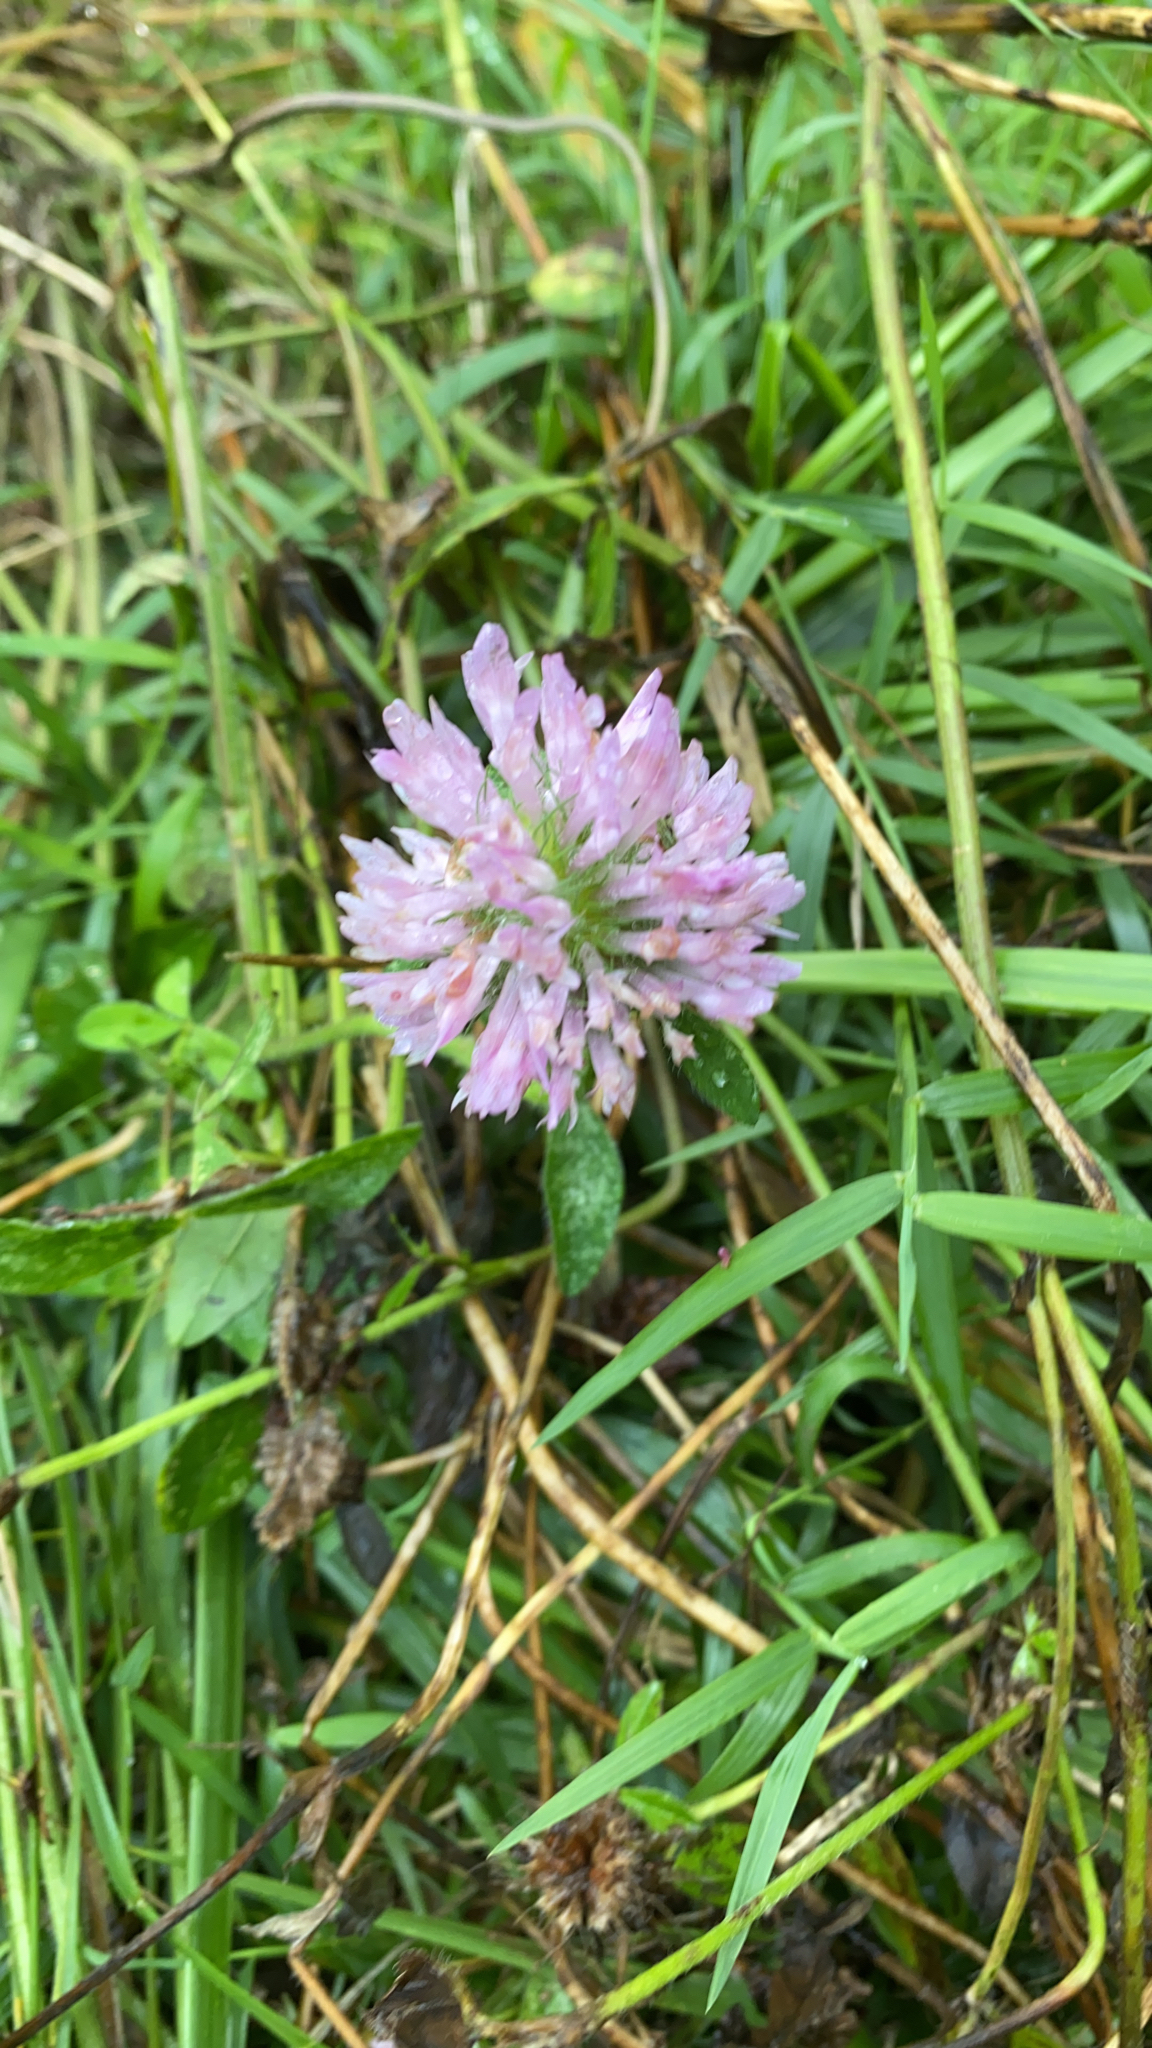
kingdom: Plantae
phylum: Tracheophyta
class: Magnoliopsida
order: Fabales
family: Fabaceae
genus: Trifolium
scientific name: Trifolium pratense
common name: Red clover
